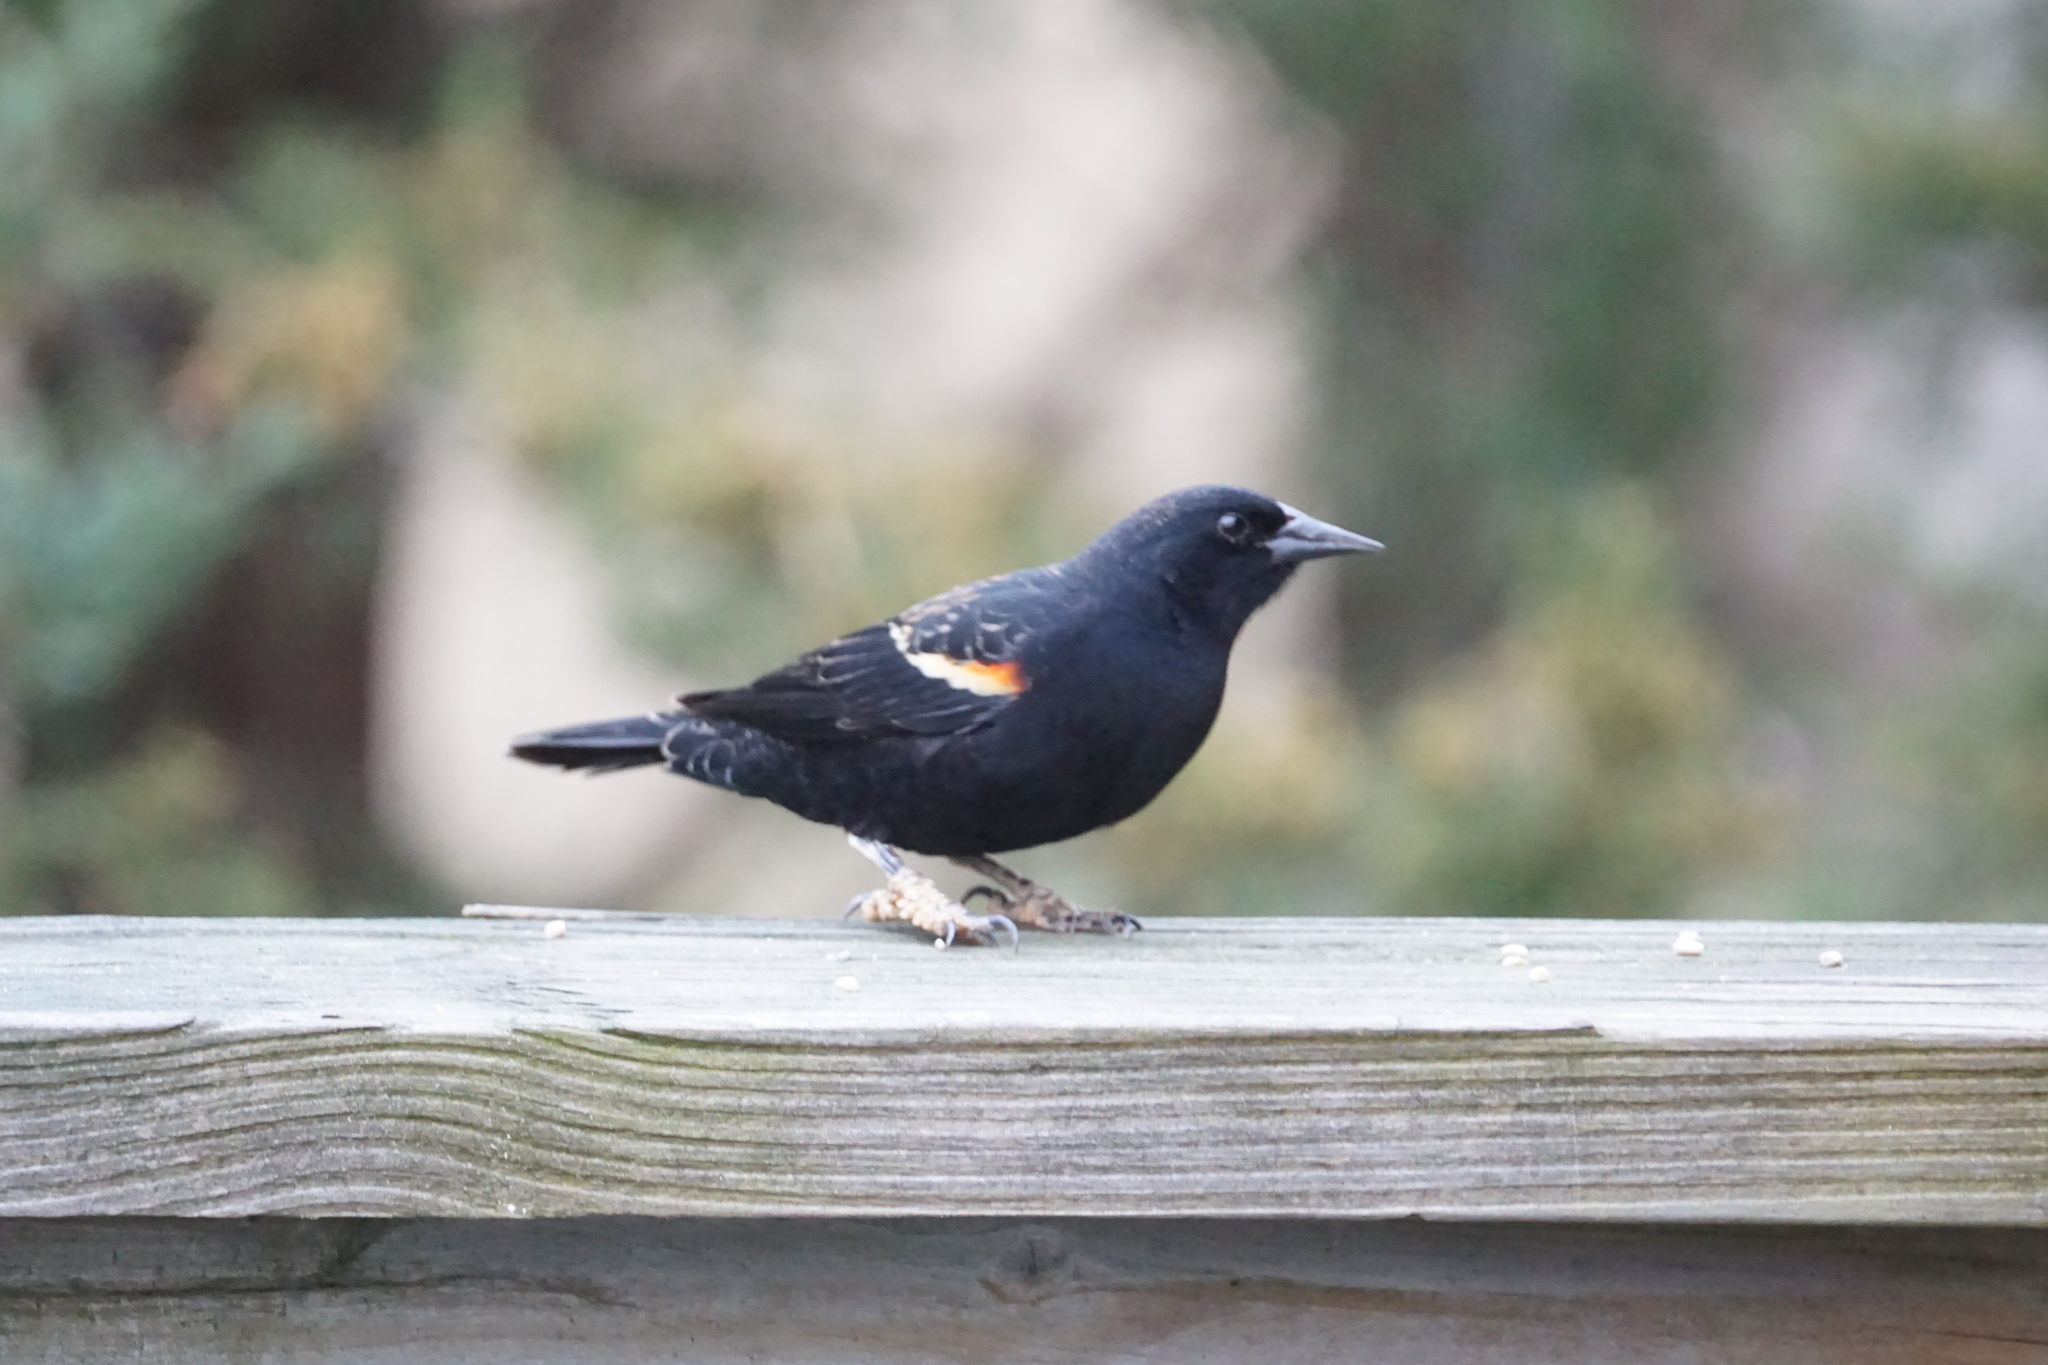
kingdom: Animalia
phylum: Chordata
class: Aves
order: Passeriformes
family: Icteridae
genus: Agelaius
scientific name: Agelaius phoeniceus
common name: Red-winged blackbird
